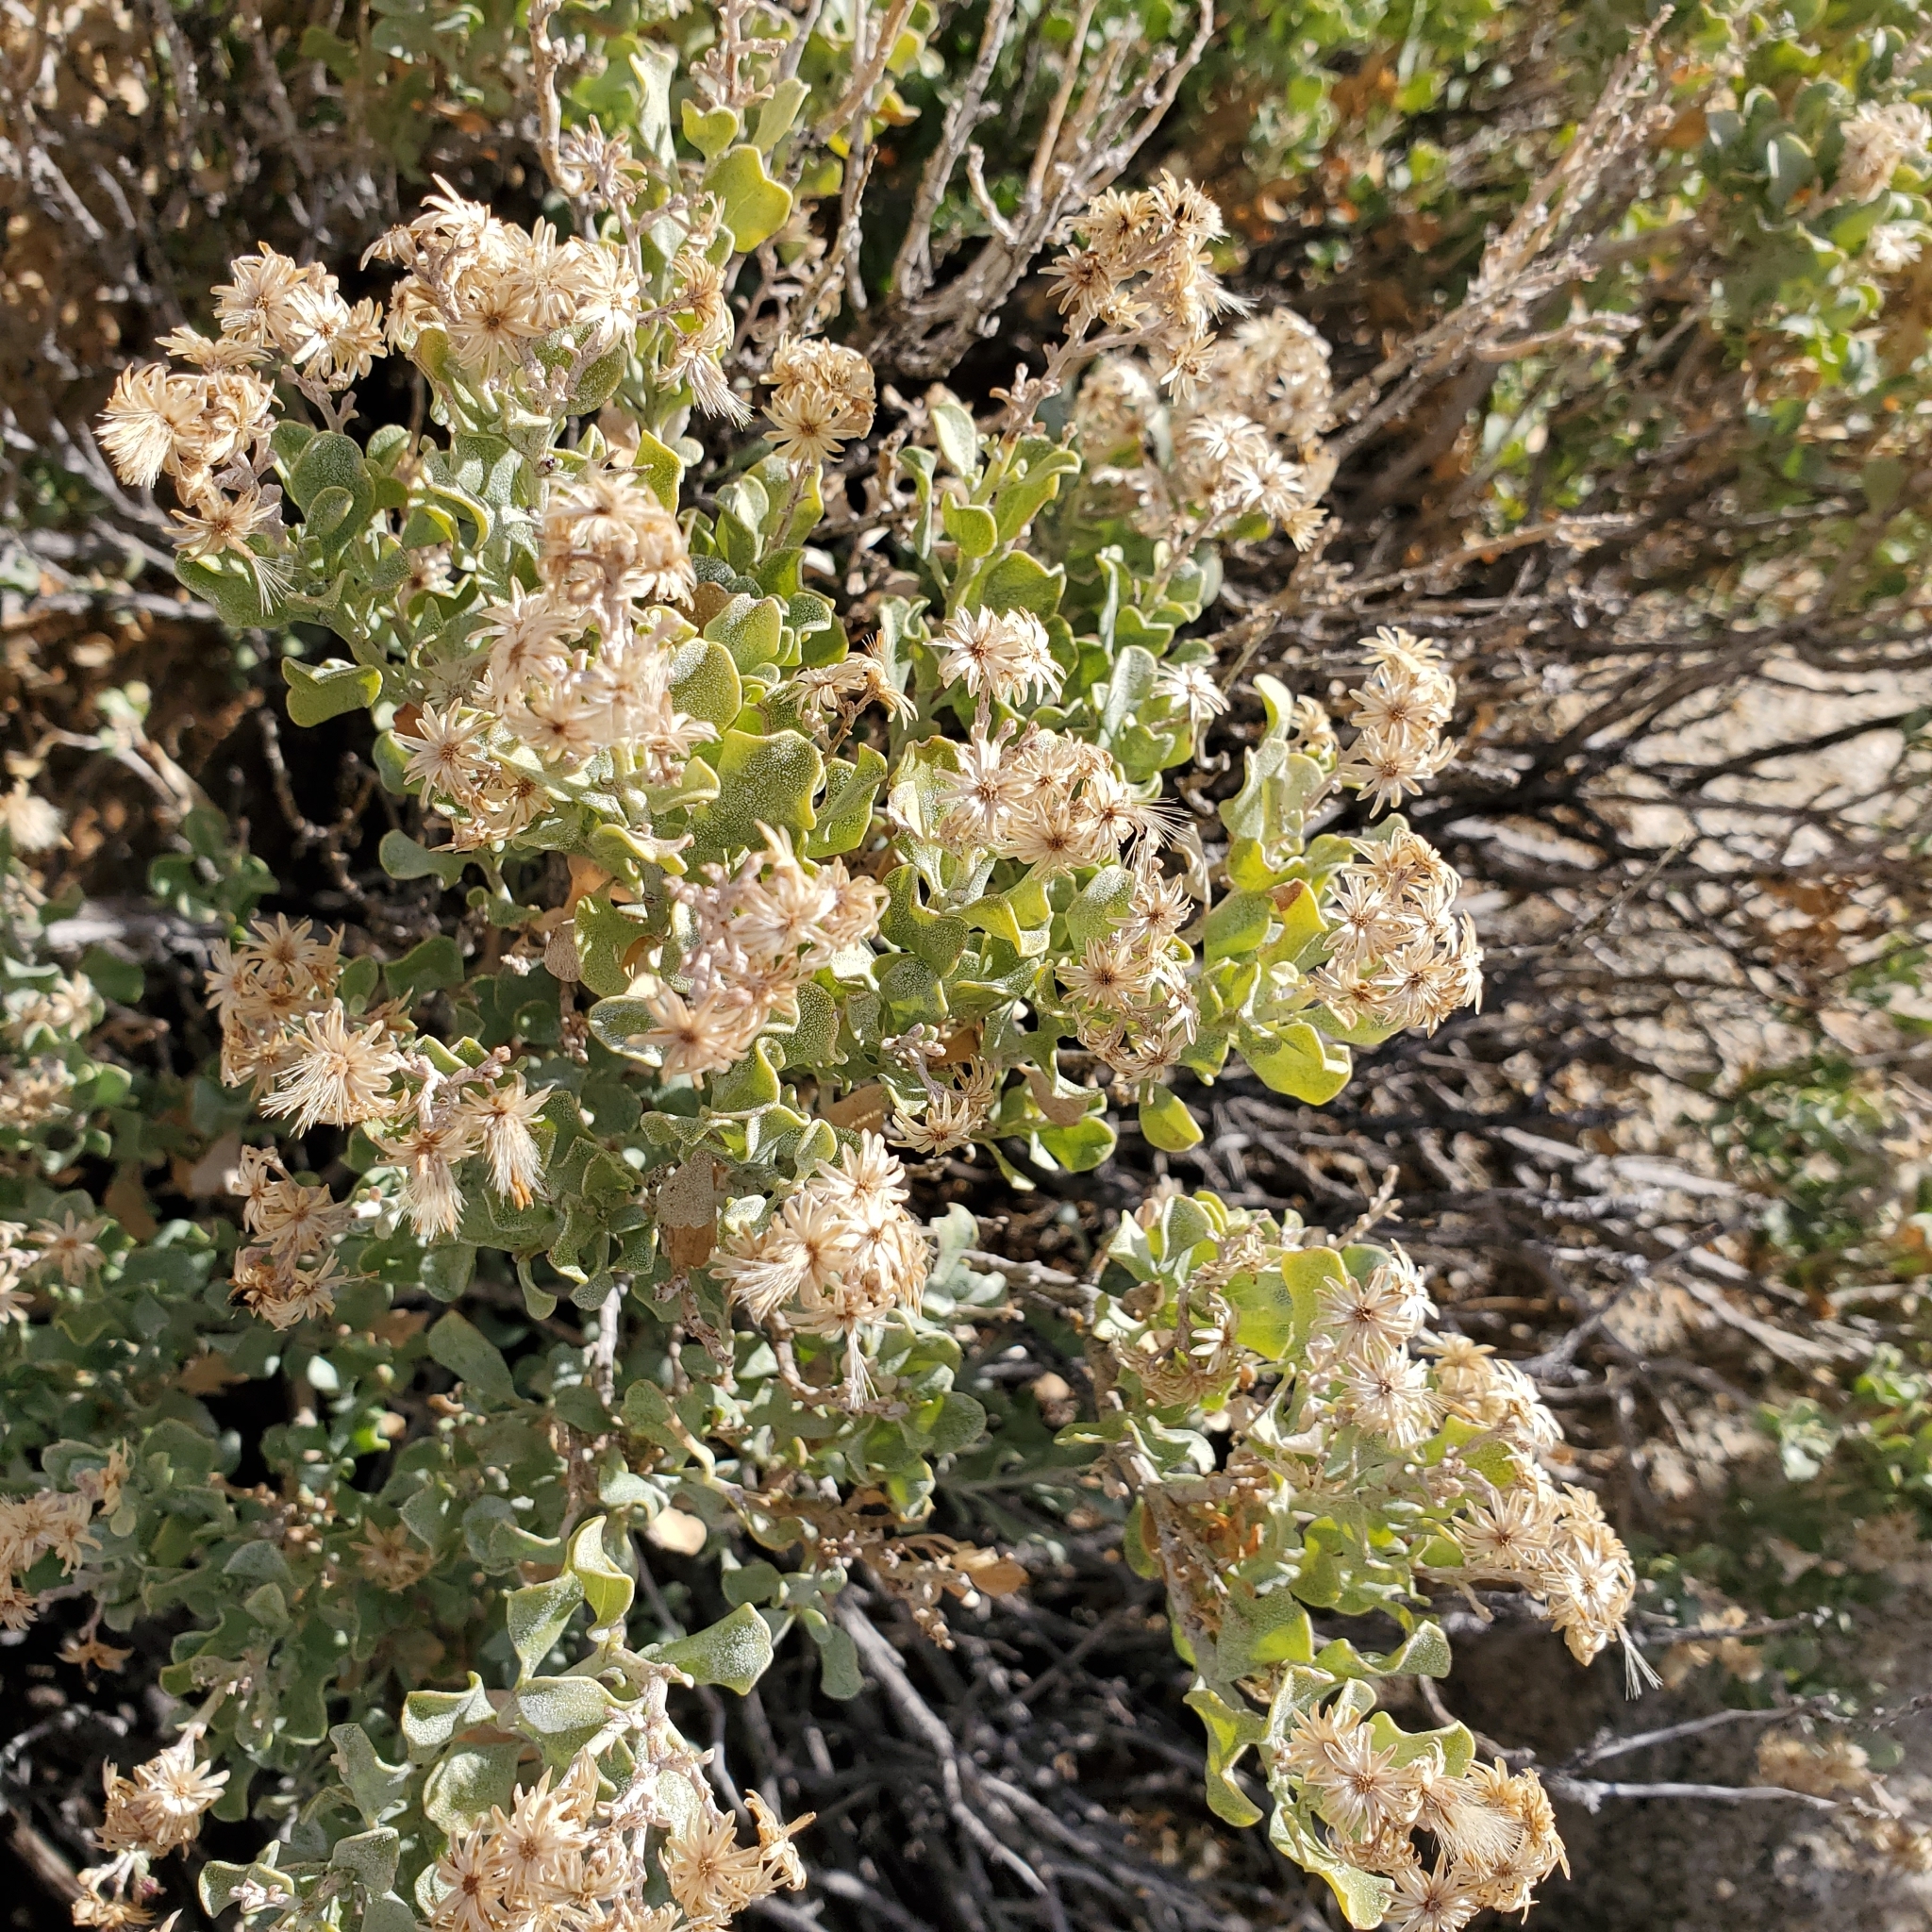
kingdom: Plantae
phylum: Tracheophyta
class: Magnoliopsida
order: Asterales
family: Asteraceae
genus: Ericameria
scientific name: Ericameria cuneata
